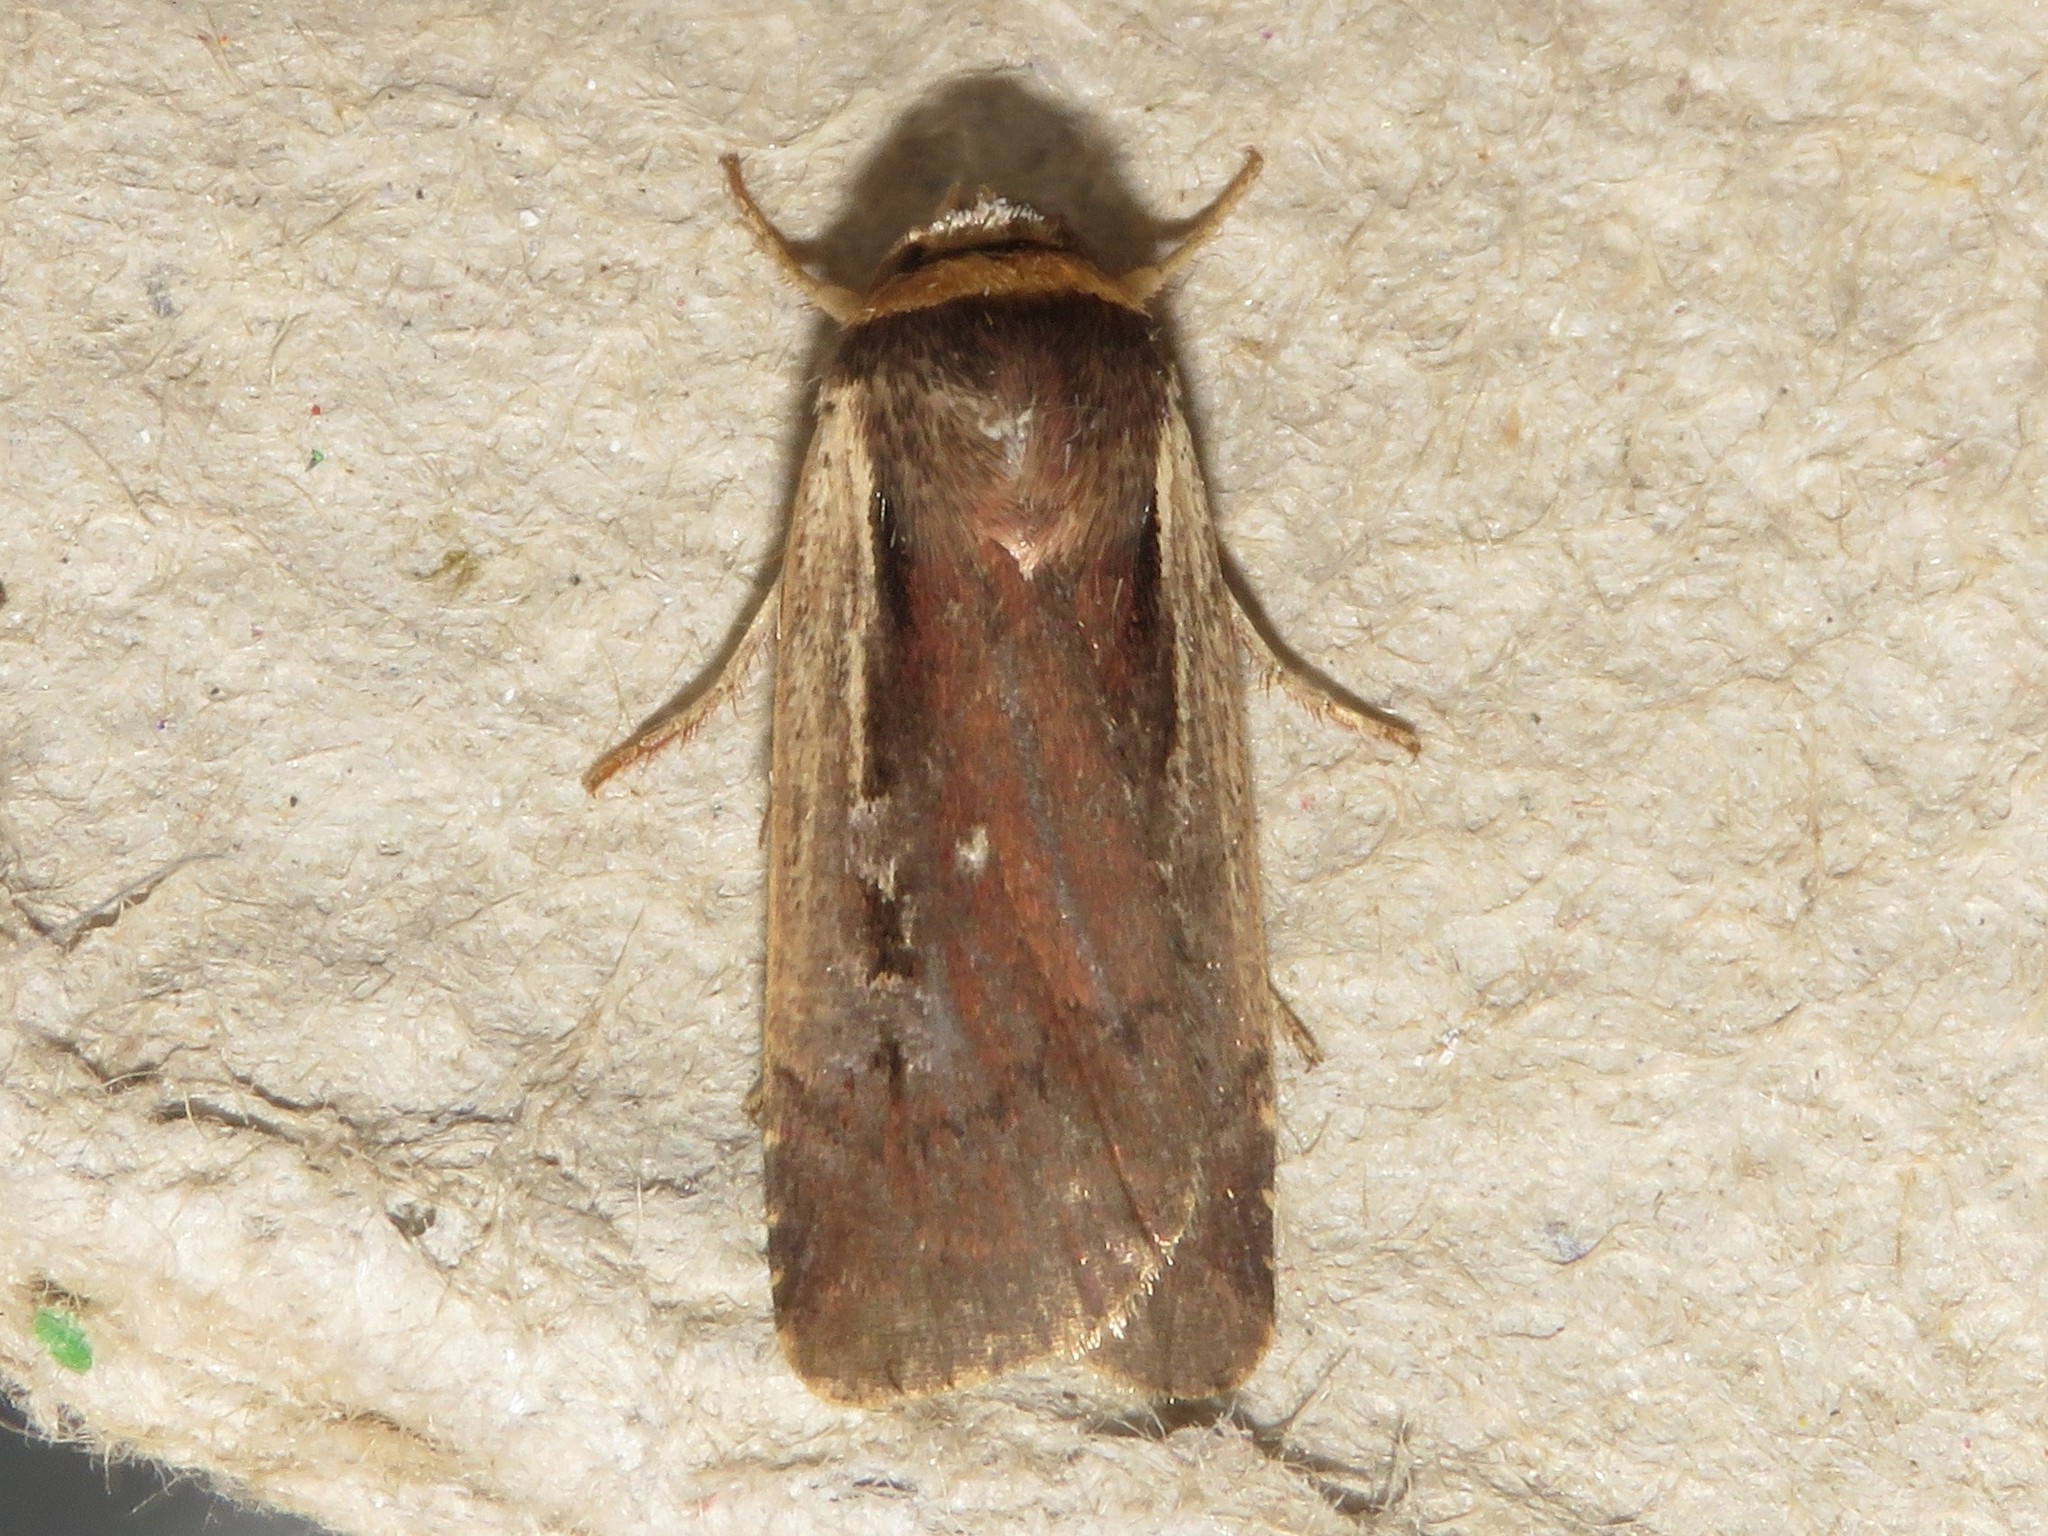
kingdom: Animalia
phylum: Arthropoda
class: Insecta
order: Lepidoptera
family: Noctuidae
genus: Ochropleura
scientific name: Ochropleura implecta
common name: Flame-shouldered dart
